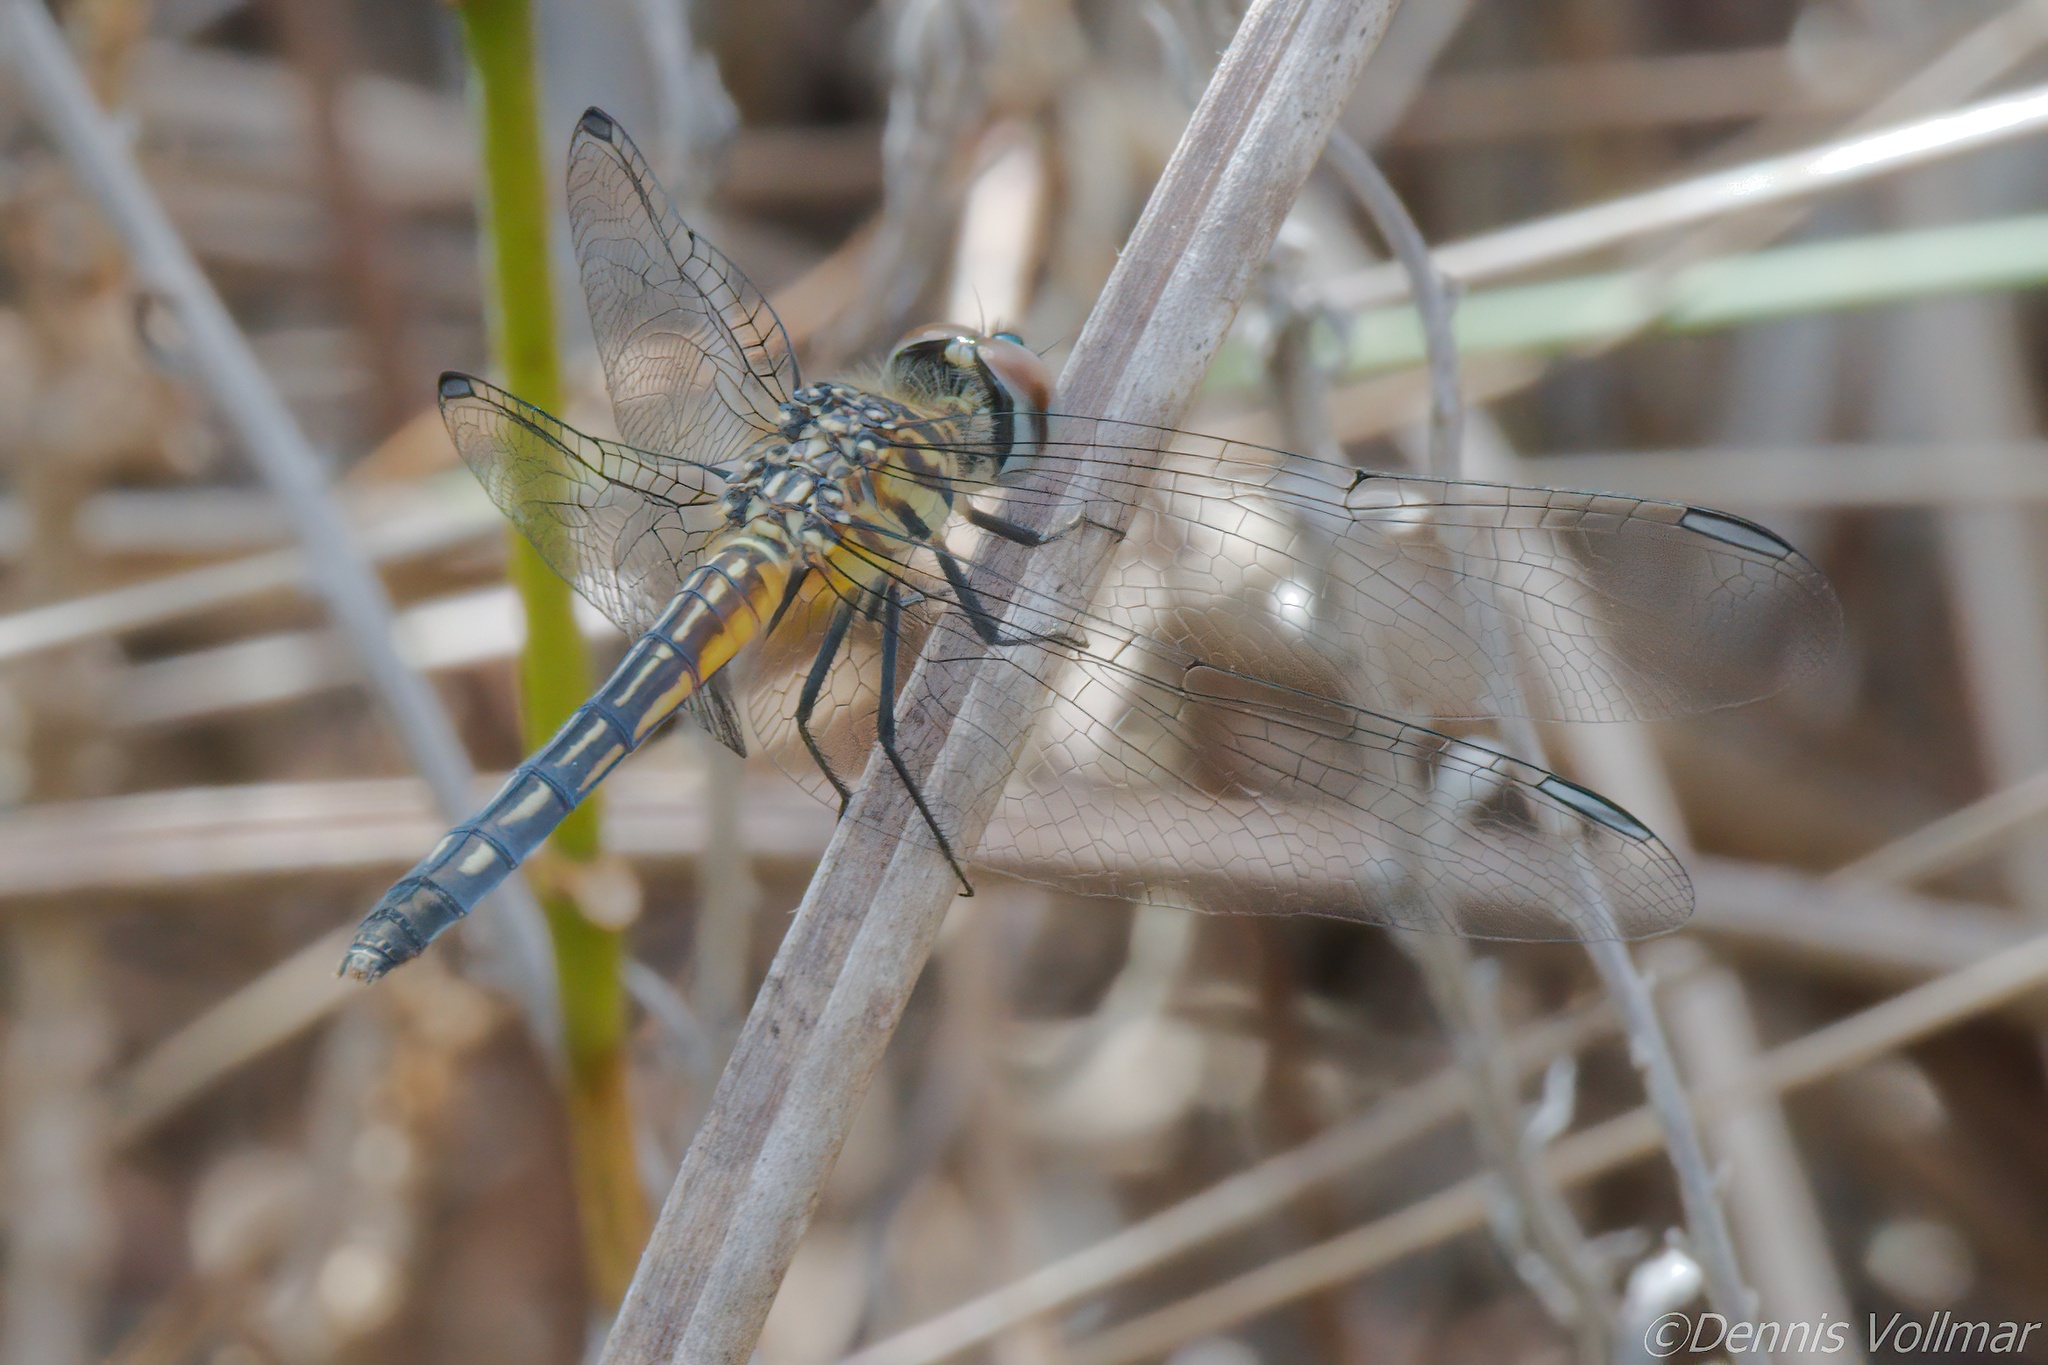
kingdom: Animalia
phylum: Arthropoda
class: Insecta
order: Odonata
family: Libellulidae
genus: Pachydiplax
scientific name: Pachydiplax longipennis
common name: Blue dasher
